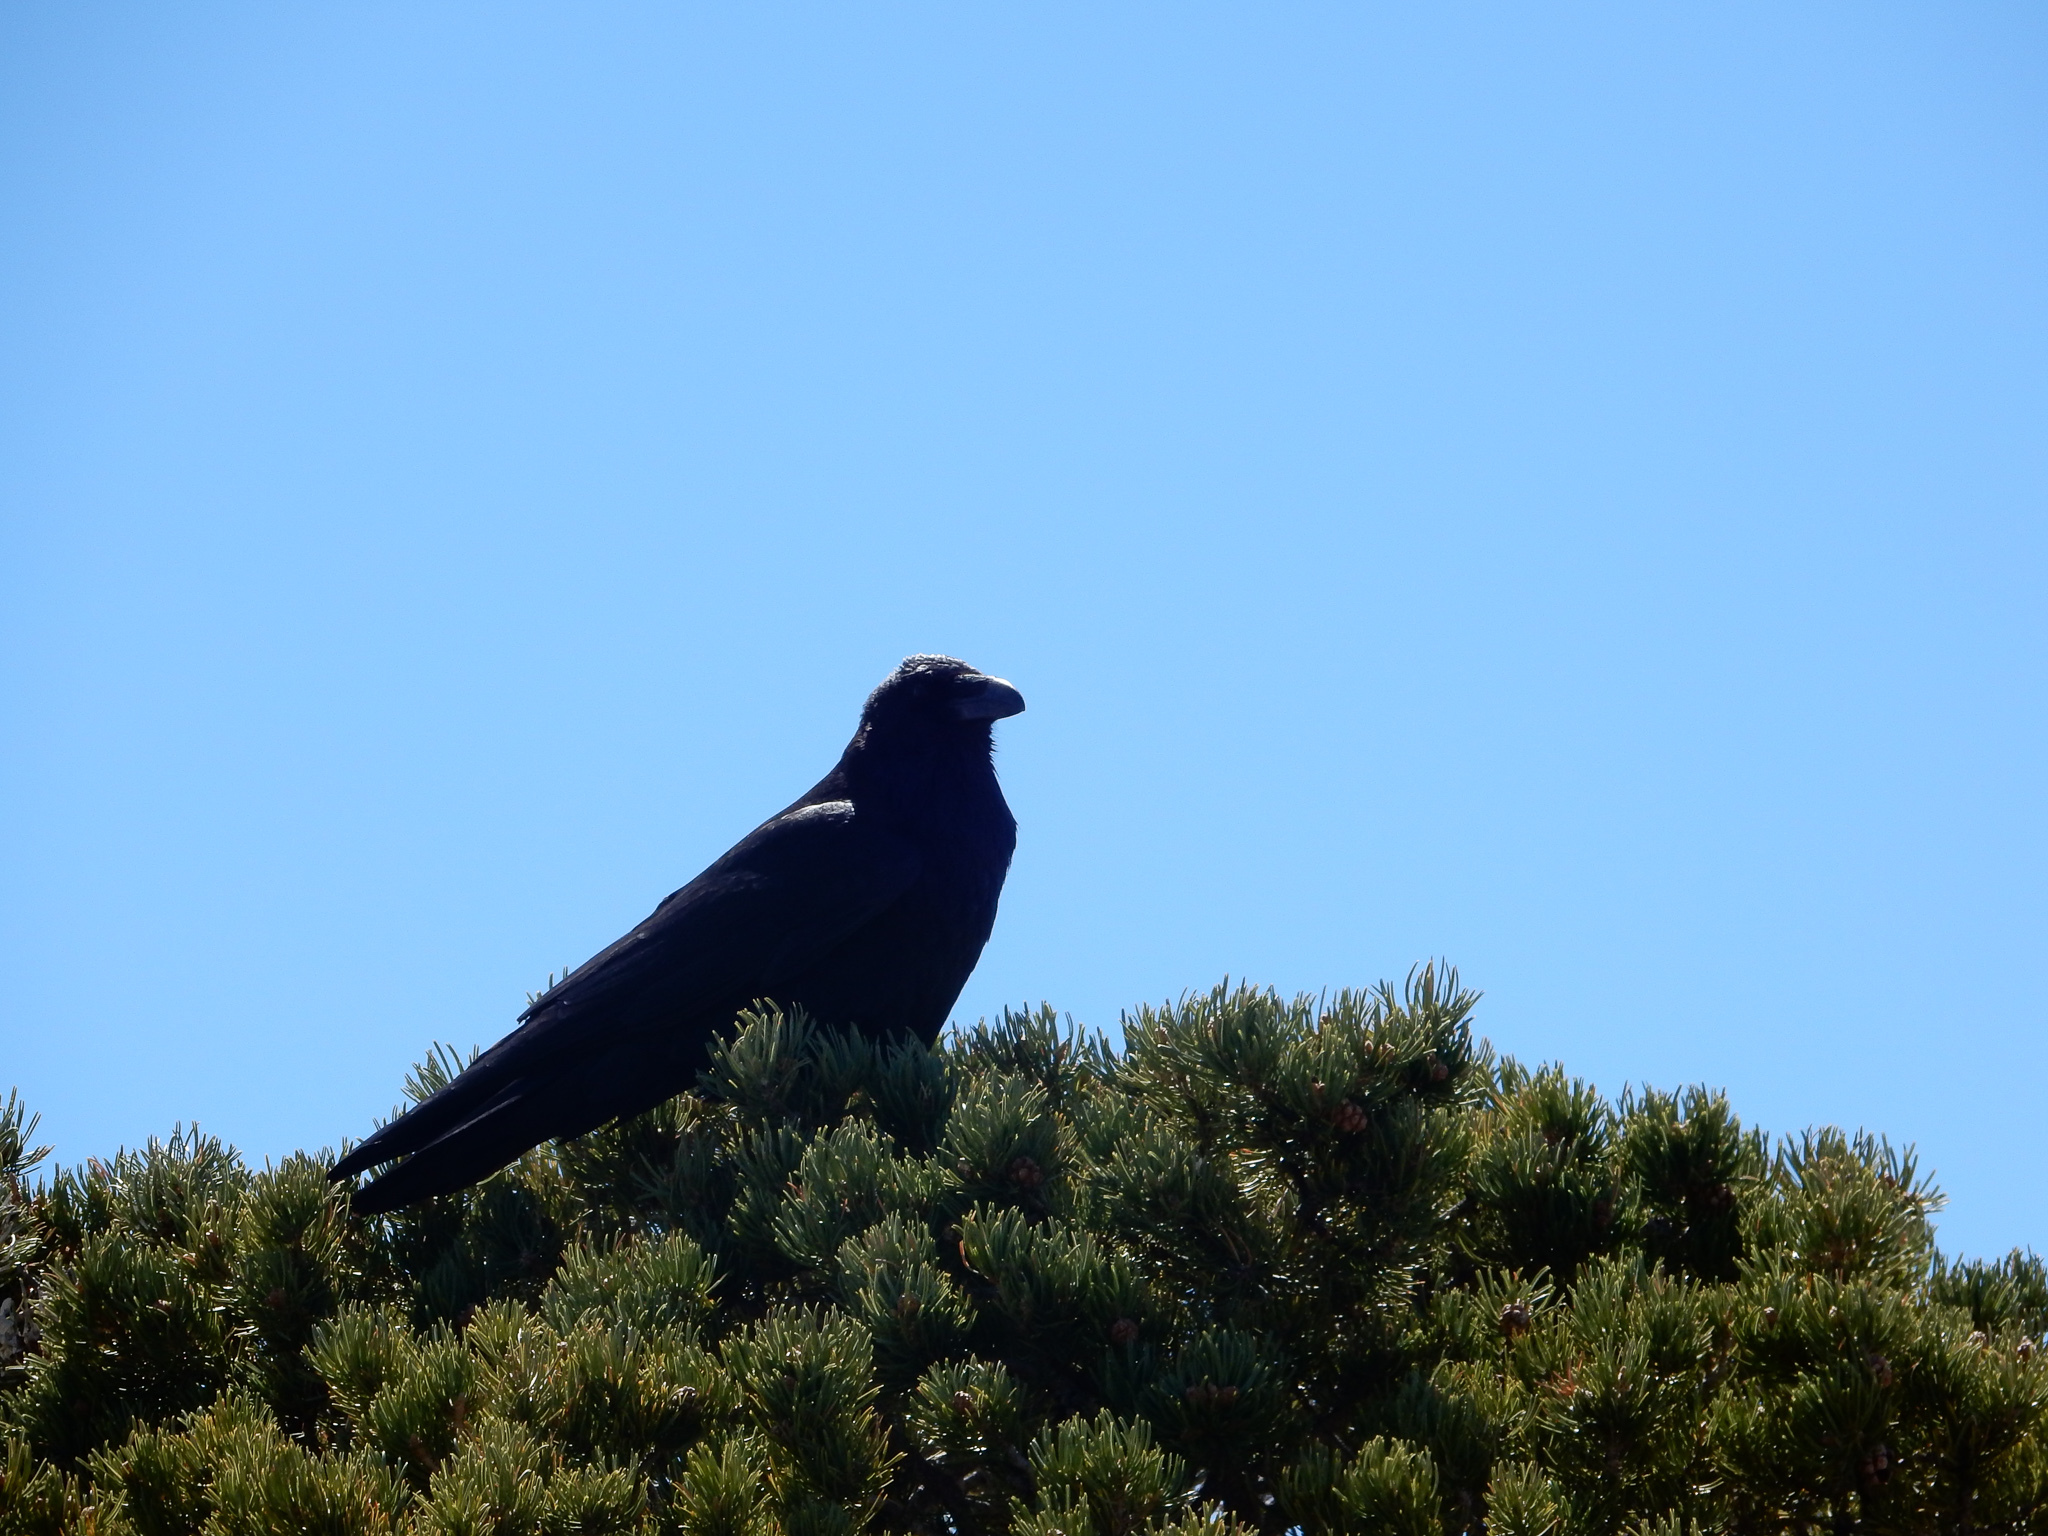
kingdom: Animalia
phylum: Chordata
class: Aves
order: Passeriformes
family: Corvidae
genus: Corvus
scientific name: Corvus corax
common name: Common raven
